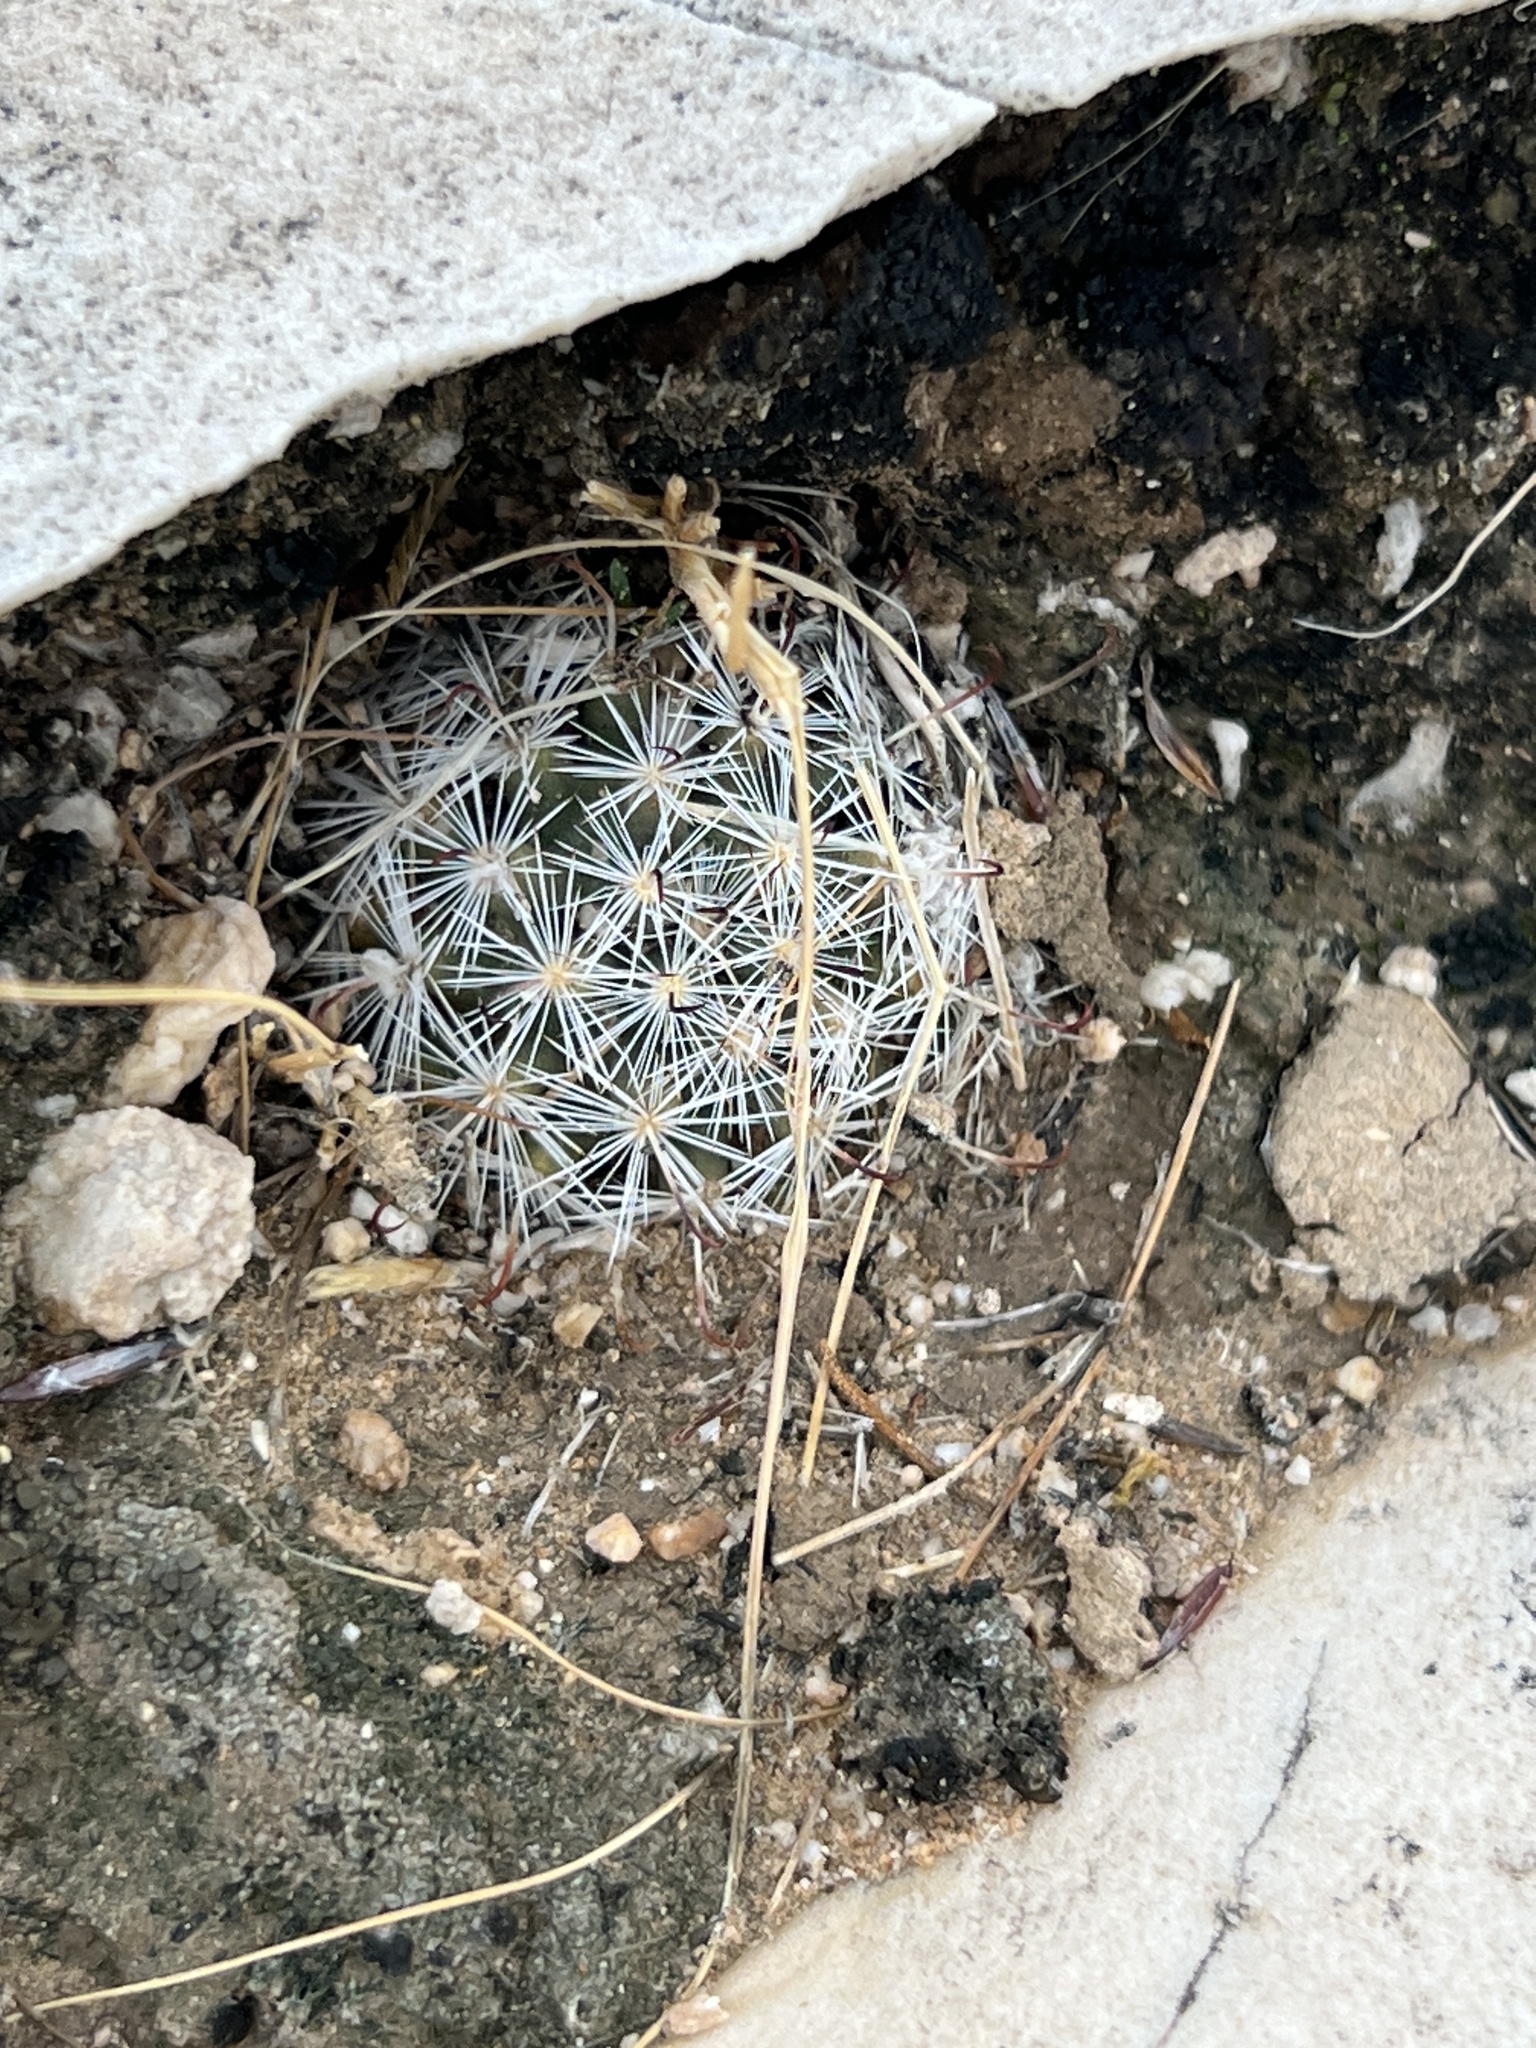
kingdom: Plantae
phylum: Tracheophyta
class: Magnoliopsida
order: Caryophyllales
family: Cactaceae
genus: Cochemiea
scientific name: Cochemiea tetrancistra
